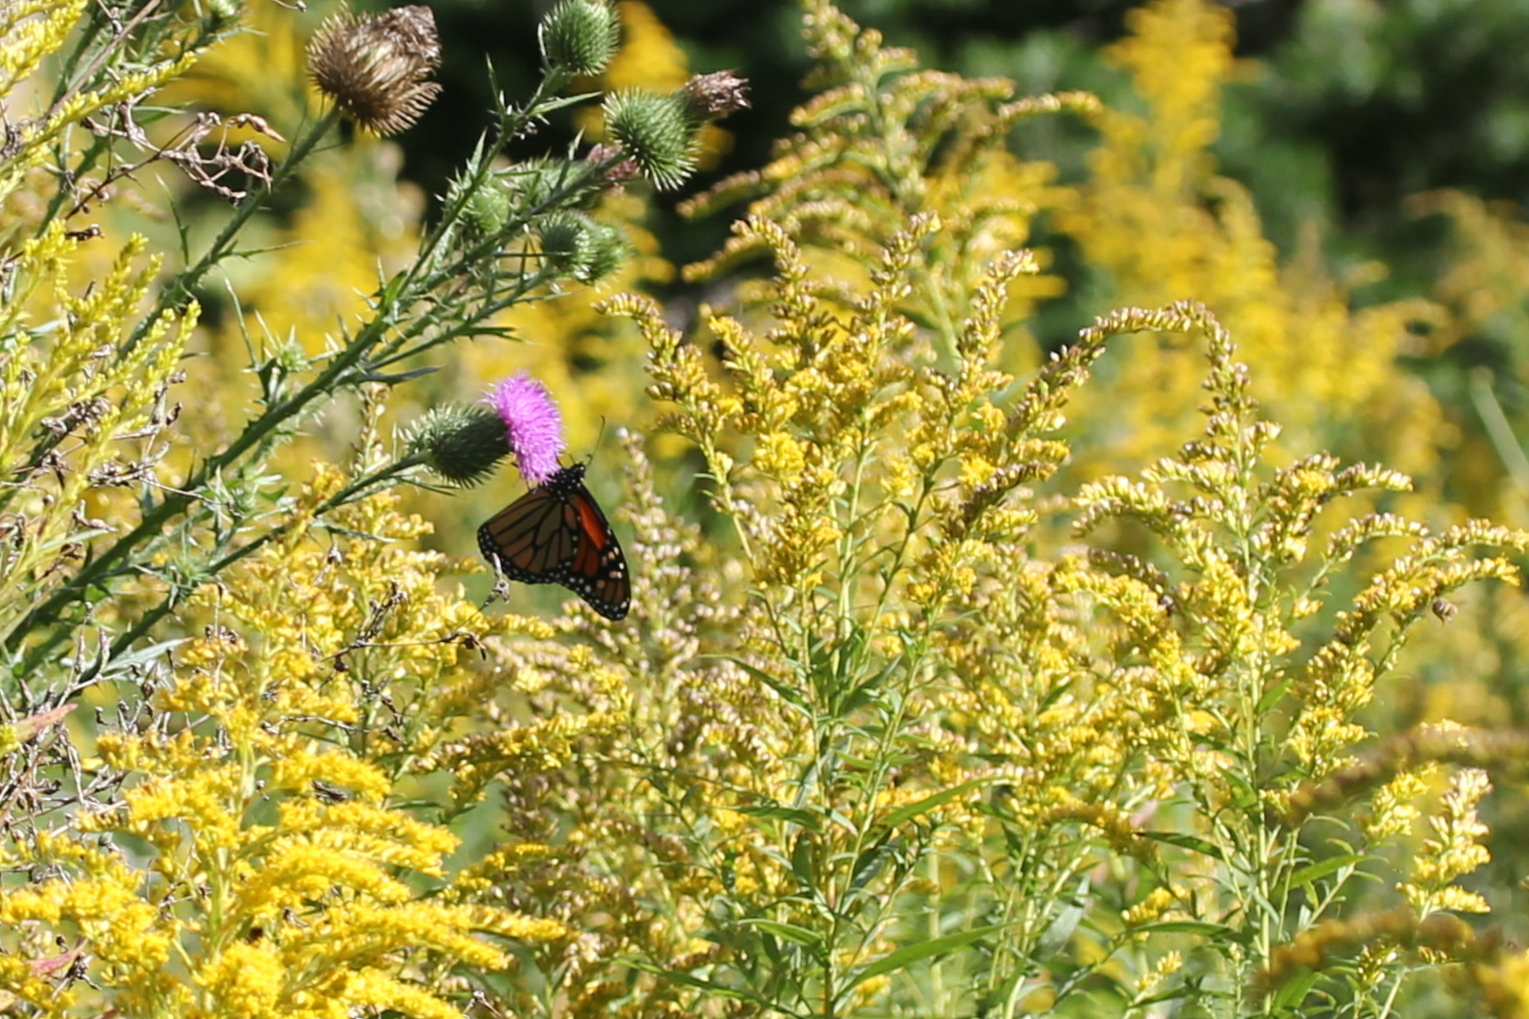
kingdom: Animalia
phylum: Arthropoda
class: Insecta
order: Lepidoptera
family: Nymphalidae
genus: Danaus
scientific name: Danaus plexippus
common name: Monarch
